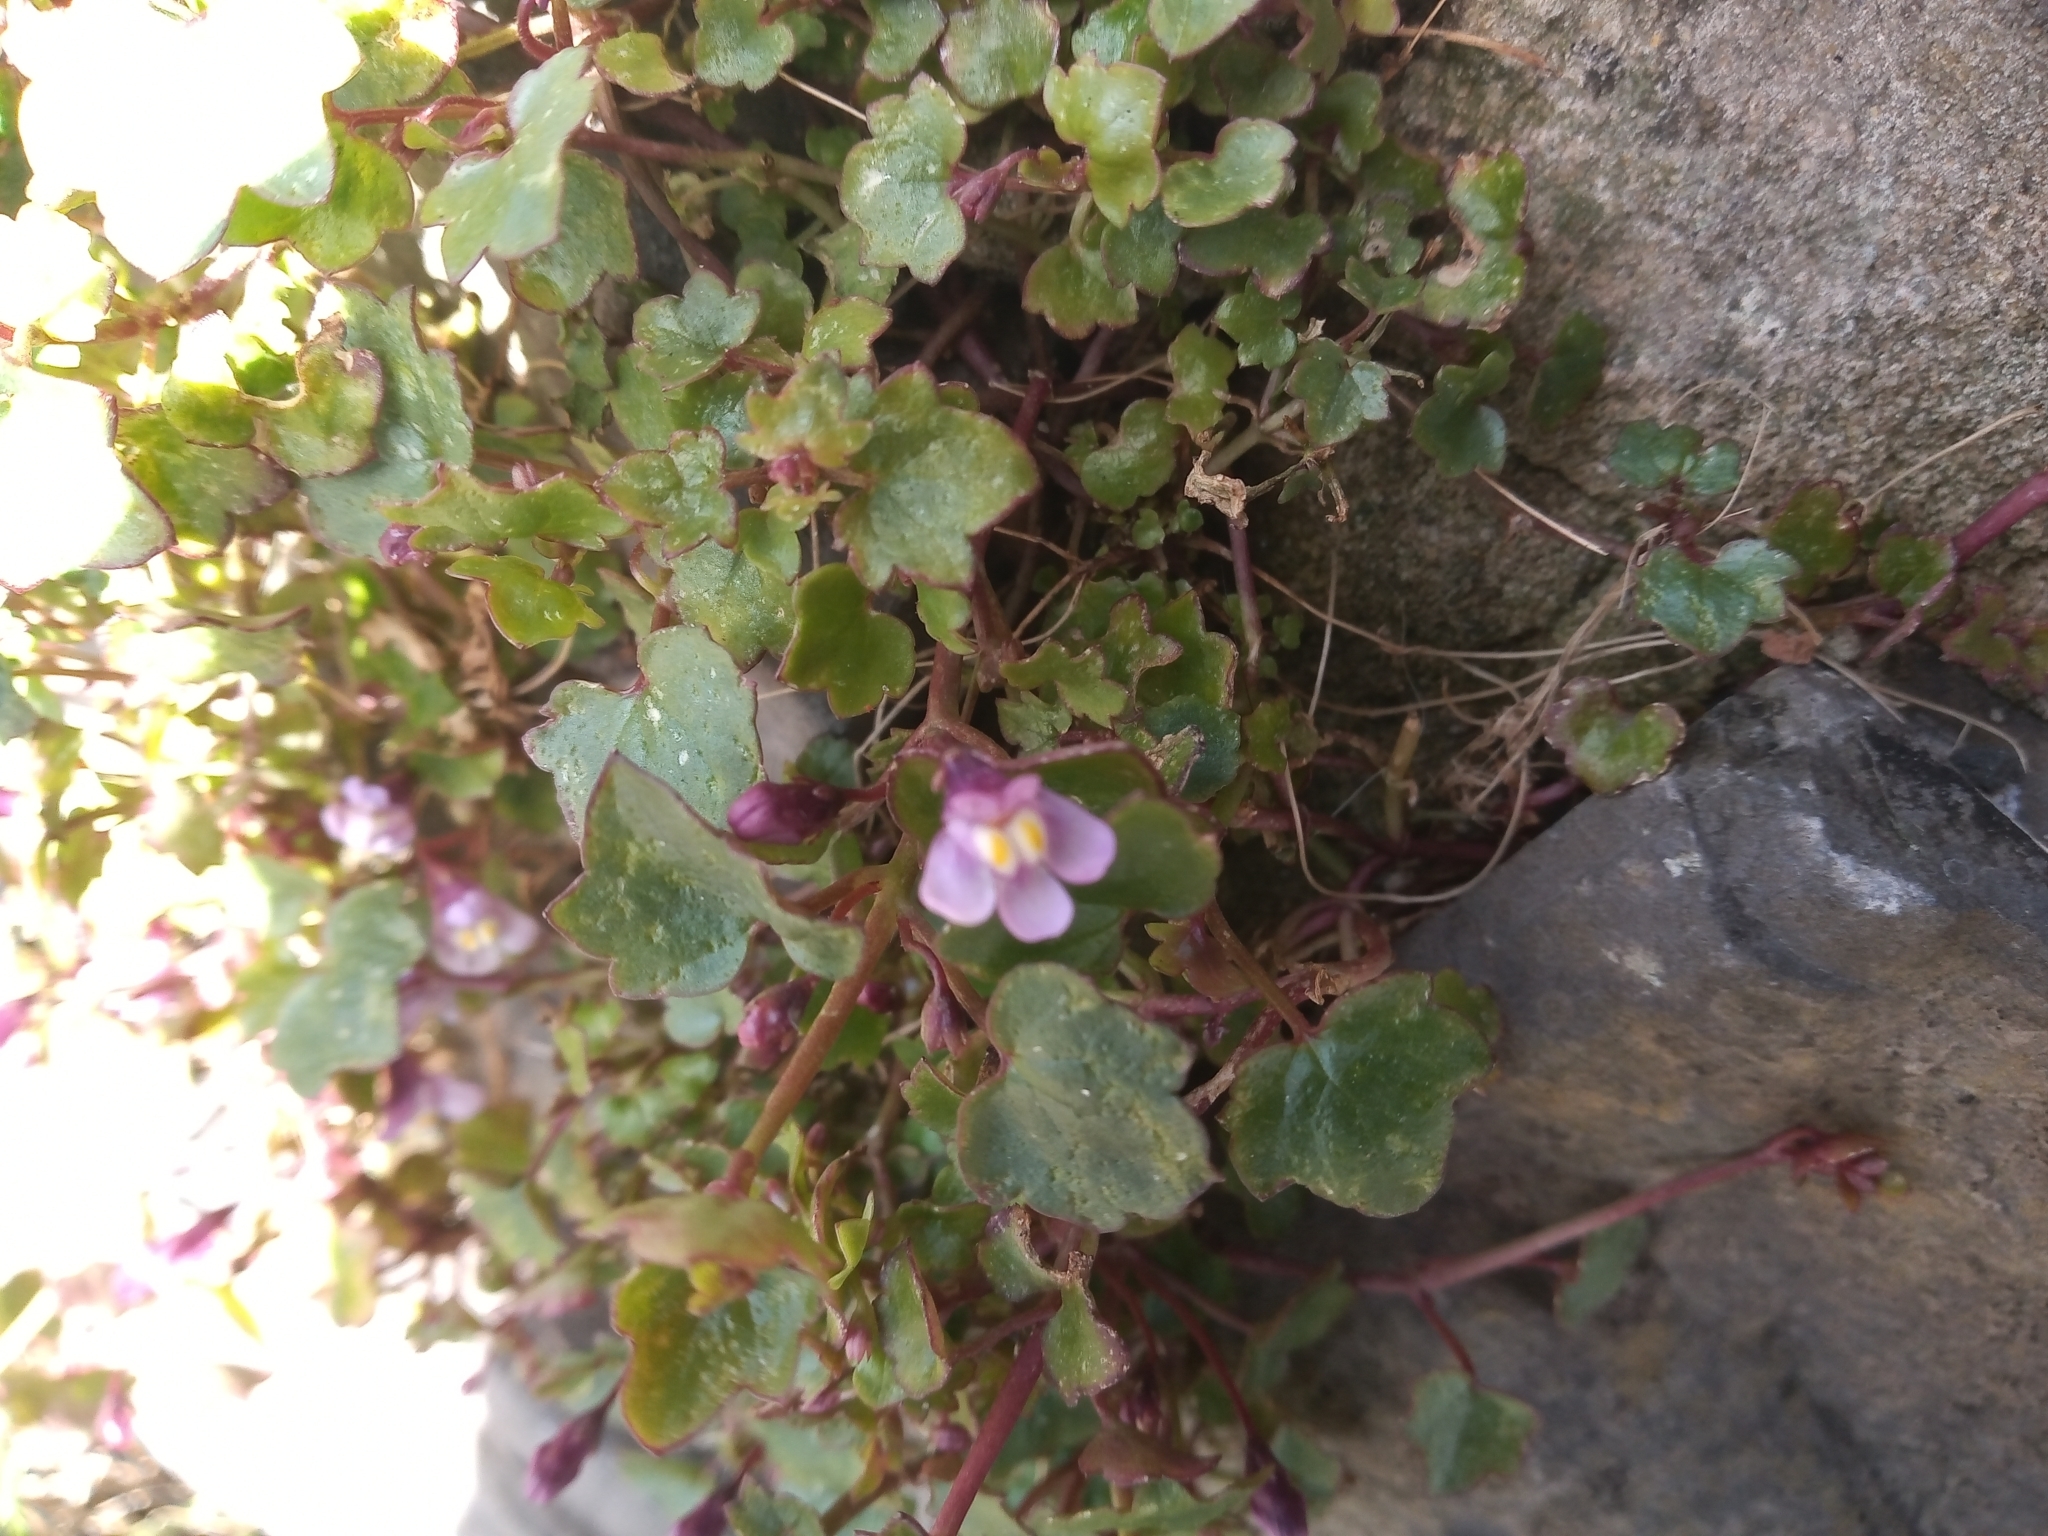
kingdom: Plantae
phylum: Tracheophyta
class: Magnoliopsida
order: Lamiales
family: Plantaginaceae
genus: Cymbalaria
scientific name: Cymbalaria muralis
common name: Ivy-leaved toadflax
